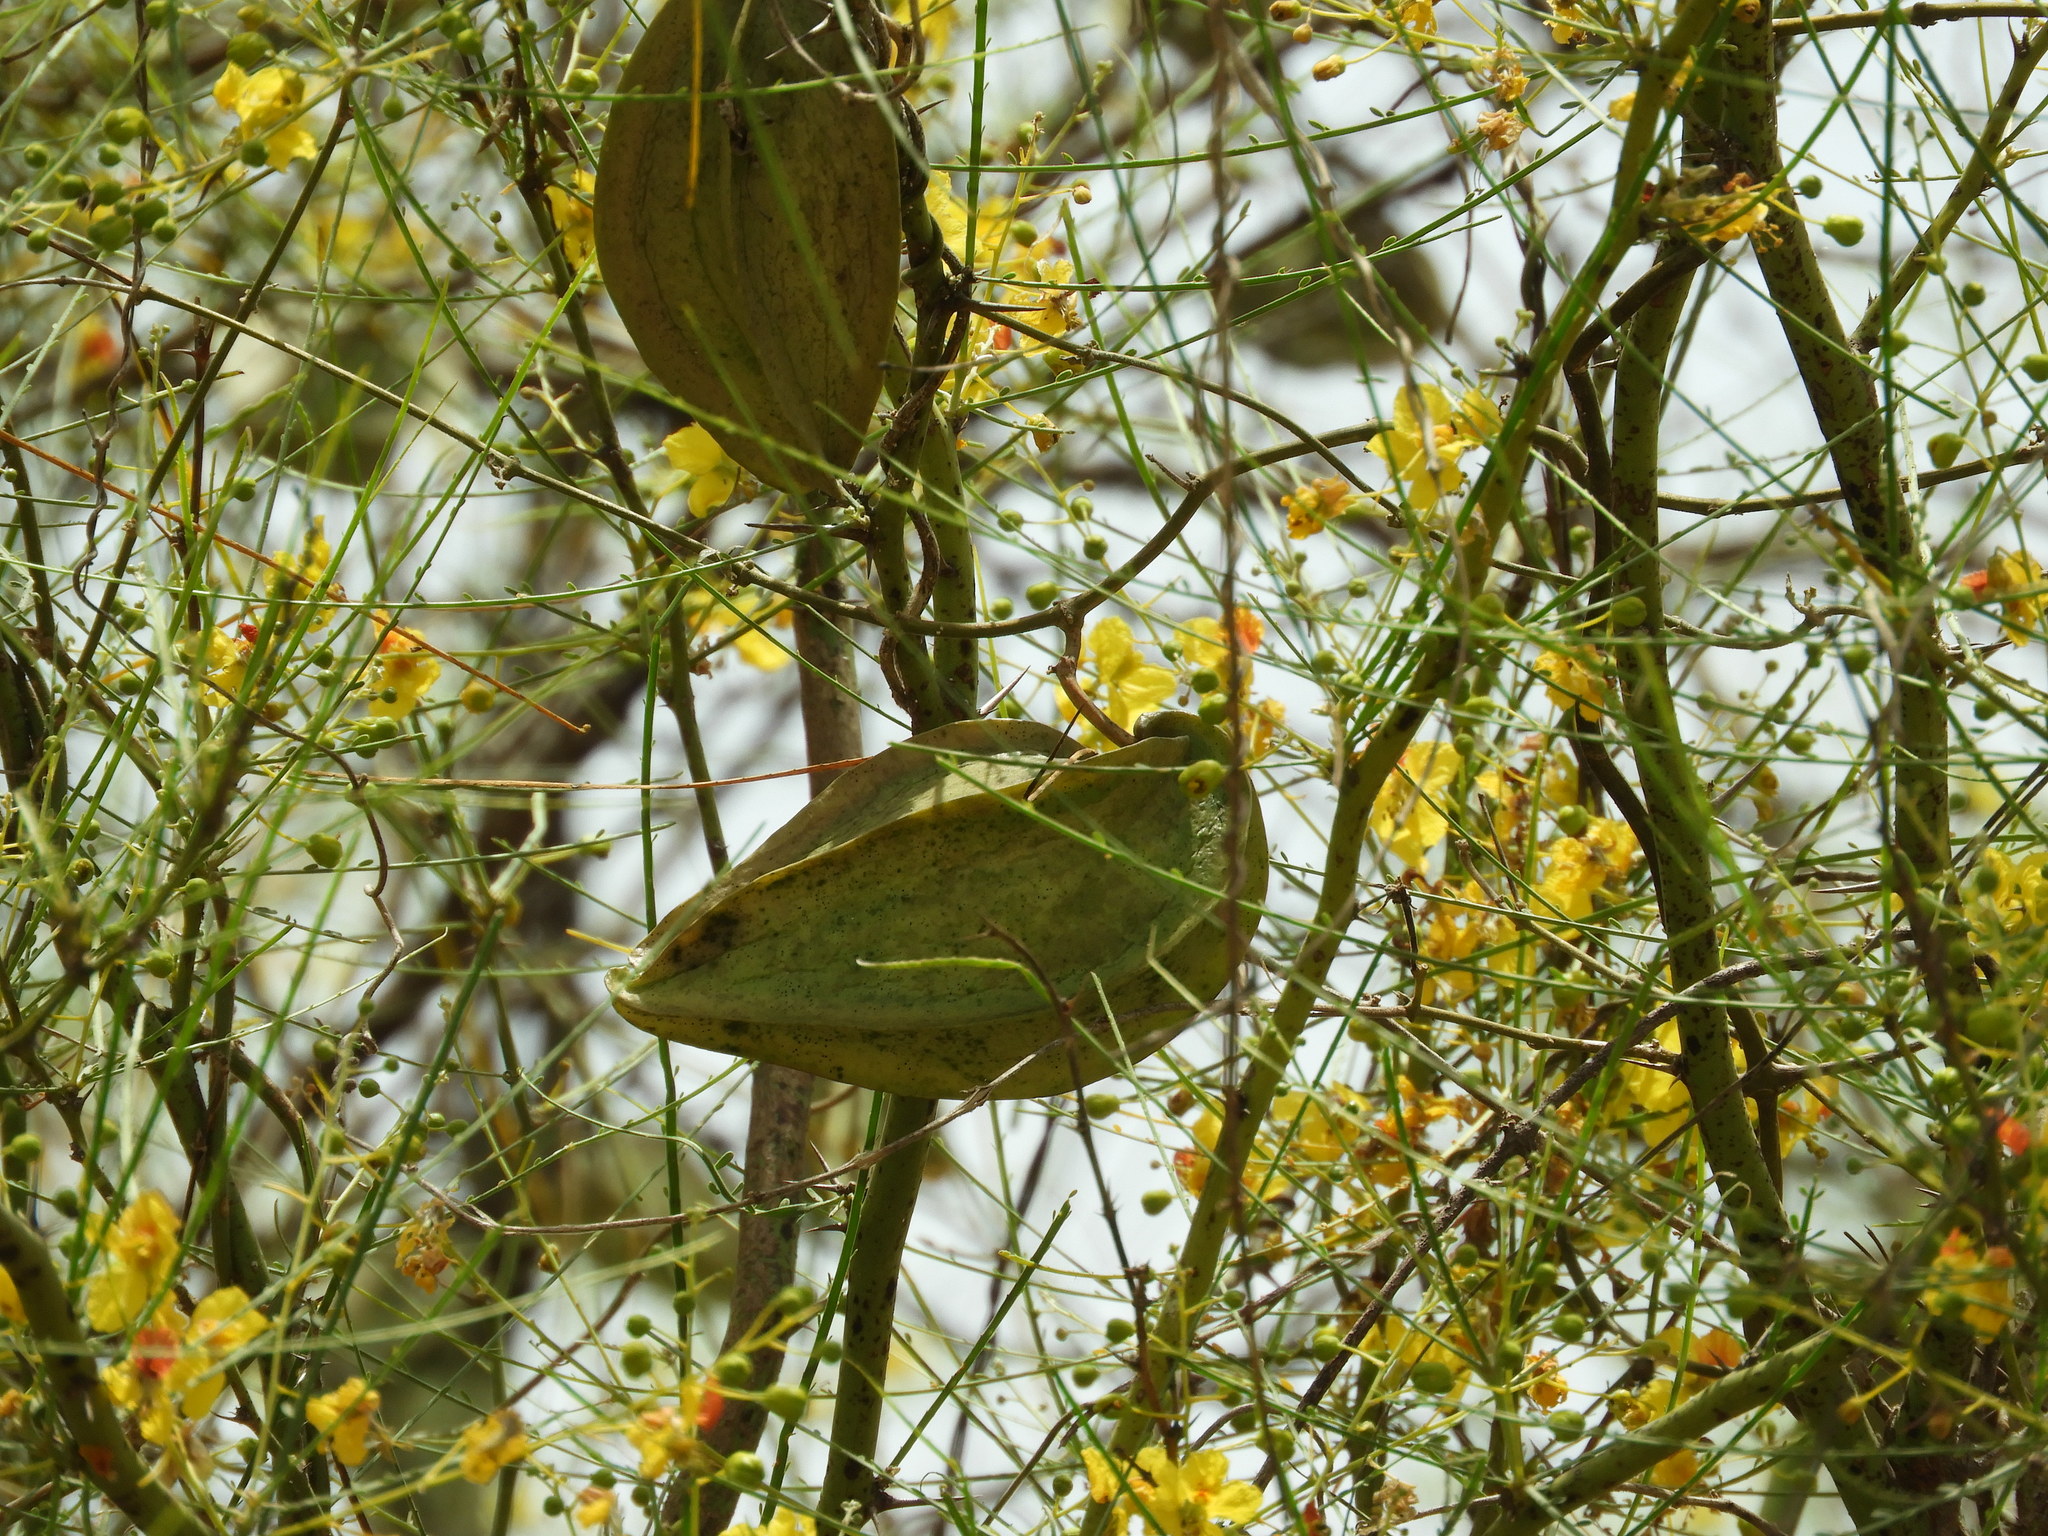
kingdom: Plantae
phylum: Tracheophyta
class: Magnoliopsida
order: Gentianales
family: Apocynaceae
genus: Gonolobus
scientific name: Gonolobus naturalistae
